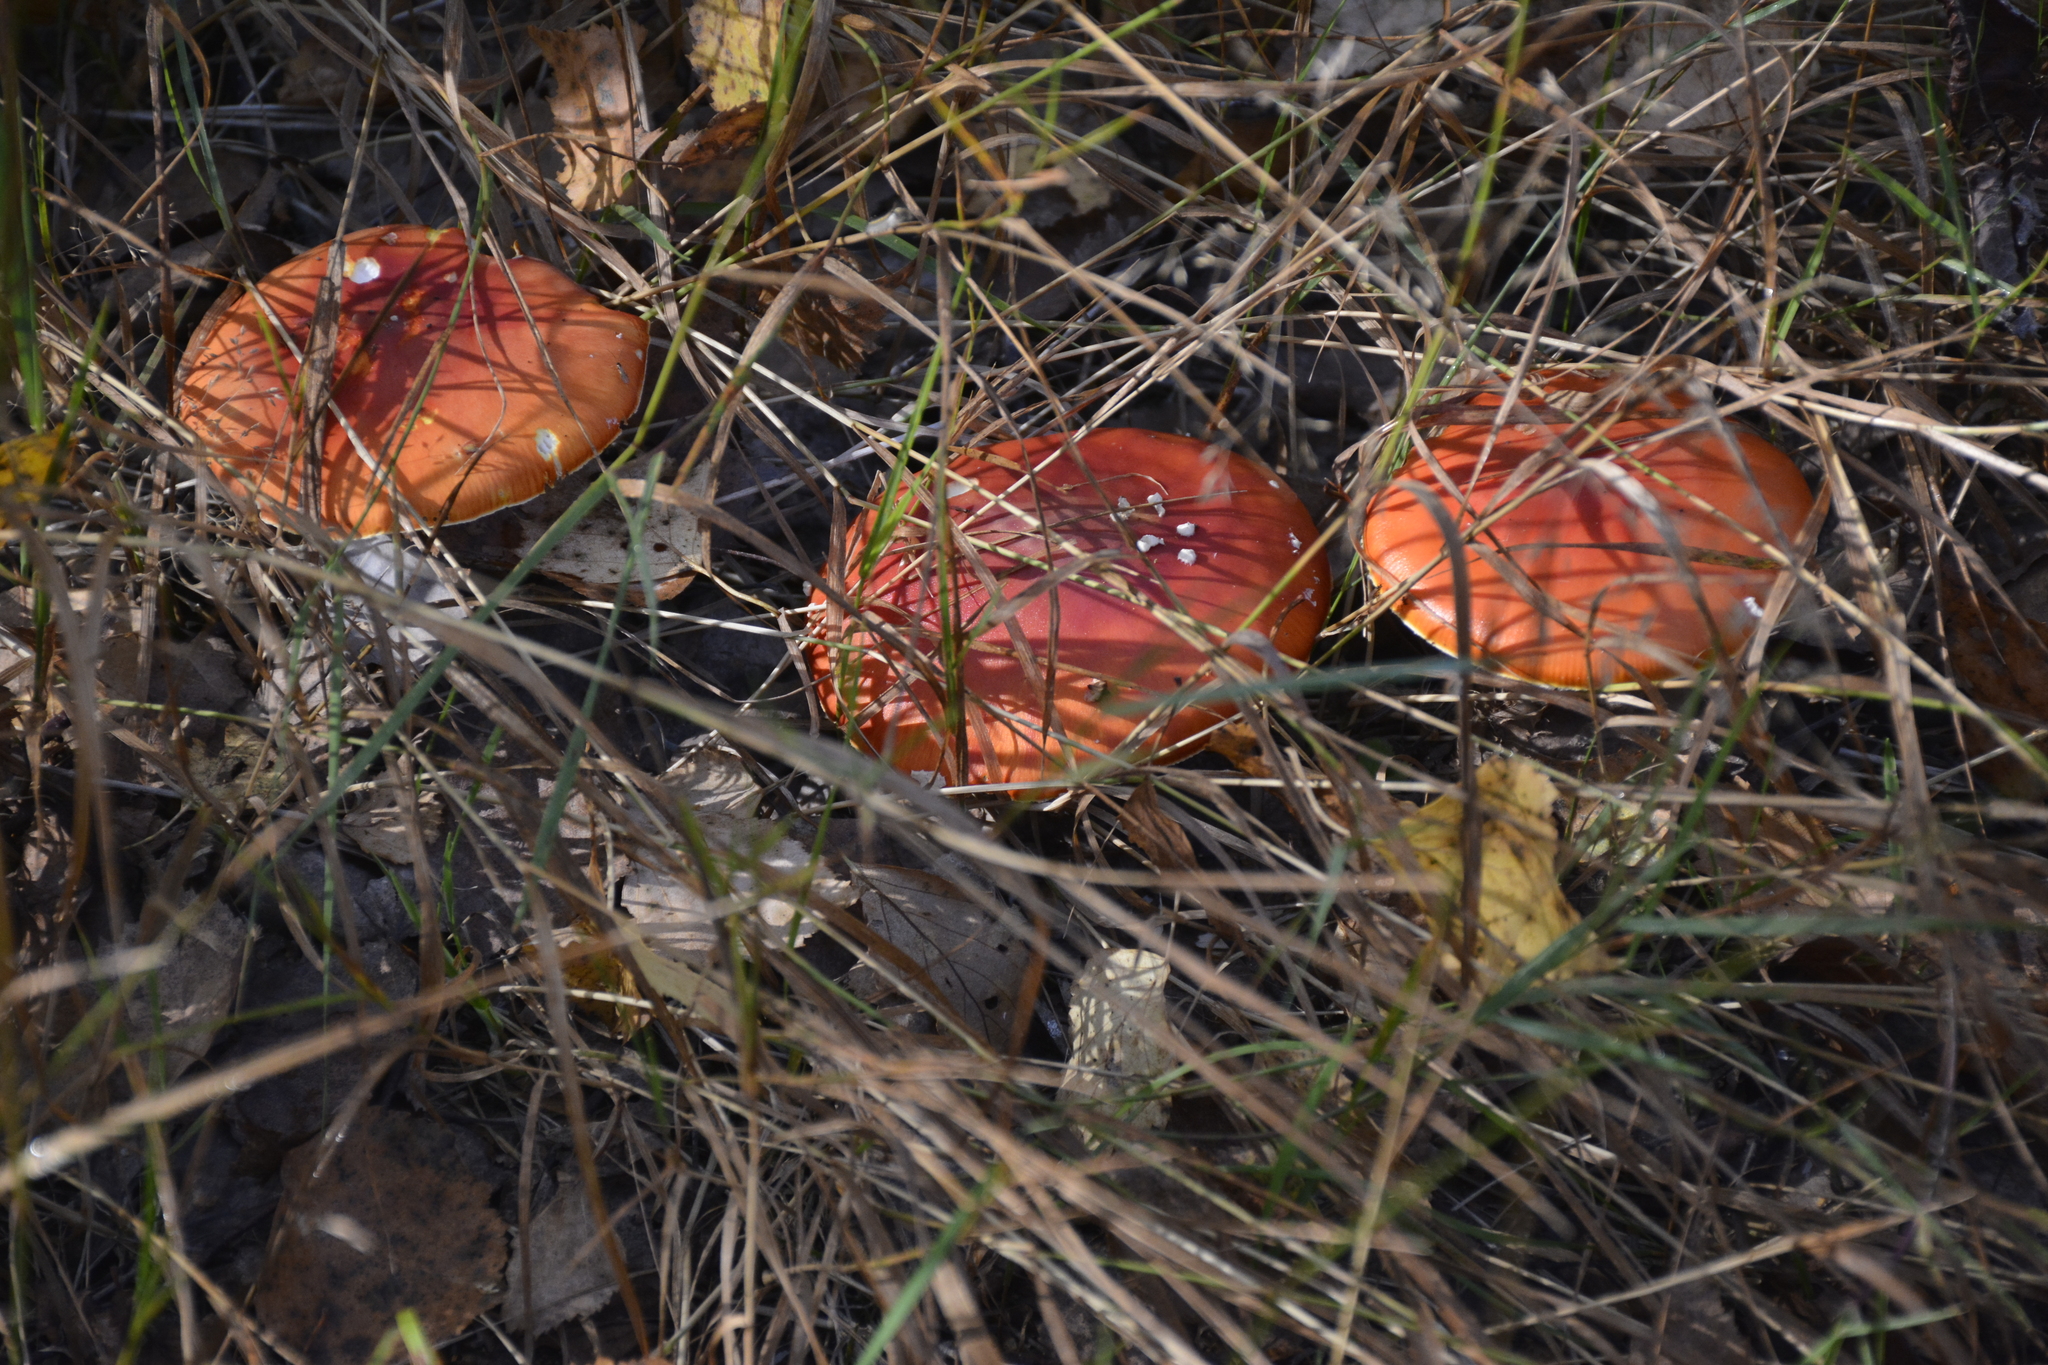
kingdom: Fungi
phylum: Basidiomycota
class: Agaricomycetes
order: Agaricales
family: Amanitaceae
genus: Amanita
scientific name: Amanita muscaria
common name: Fly agaric
